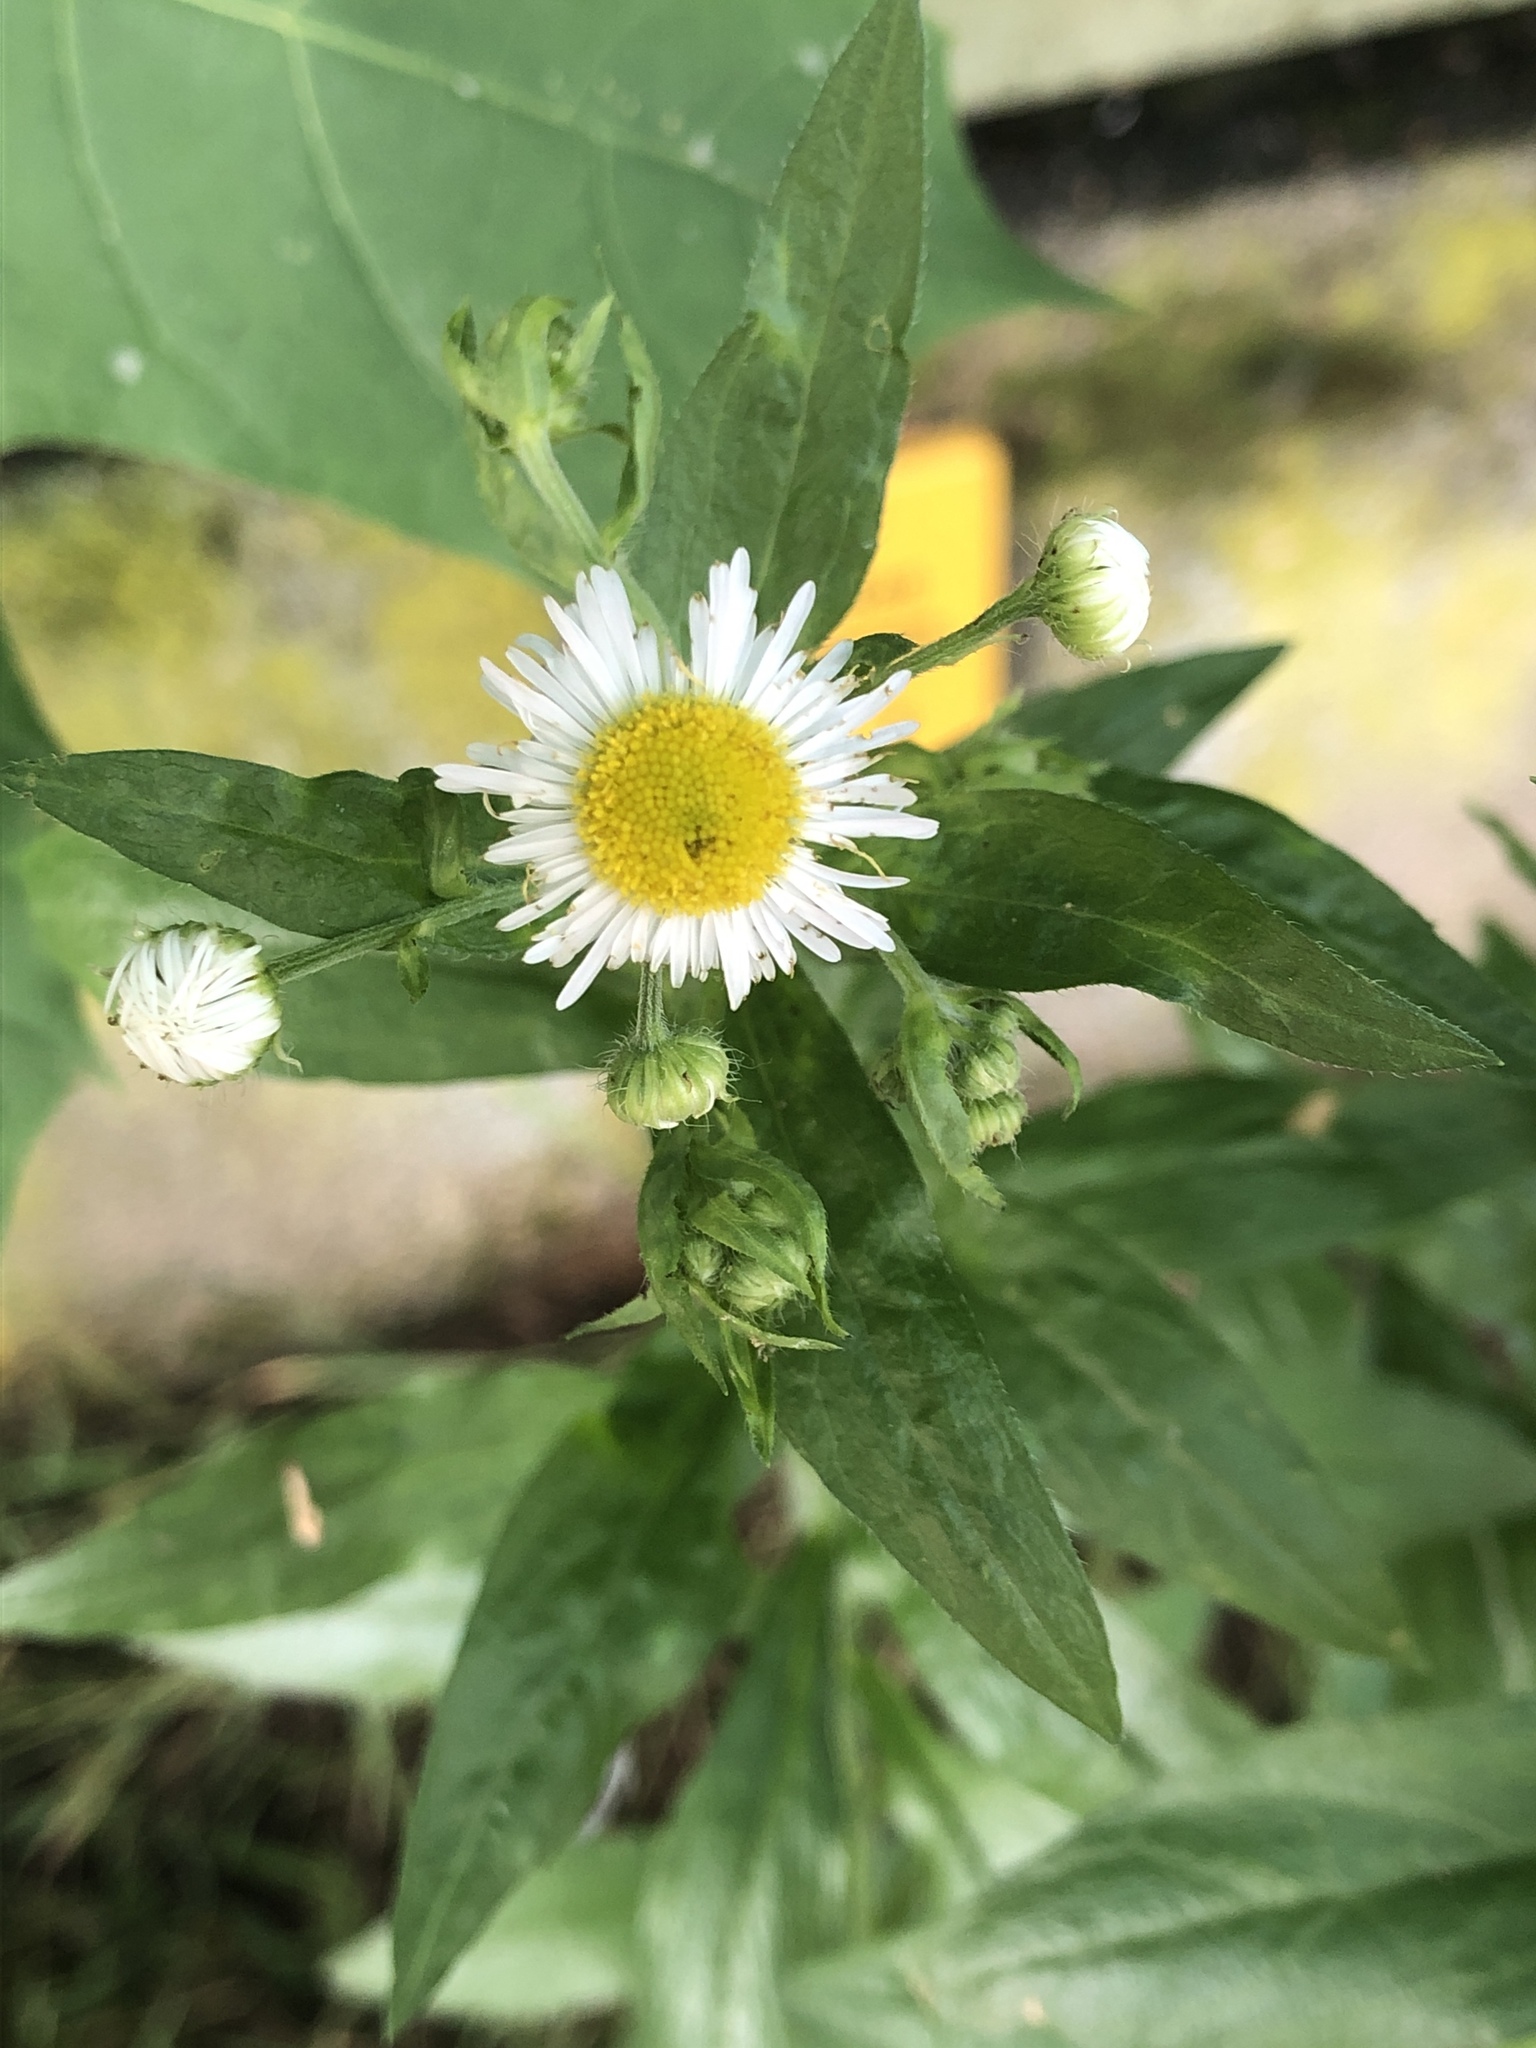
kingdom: Plantae
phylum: Tracheophyta
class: Magnoliopsida
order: Asterales
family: Asteraceae
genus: Erigeron
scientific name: Erigeron annuus
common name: Tall fleabane
